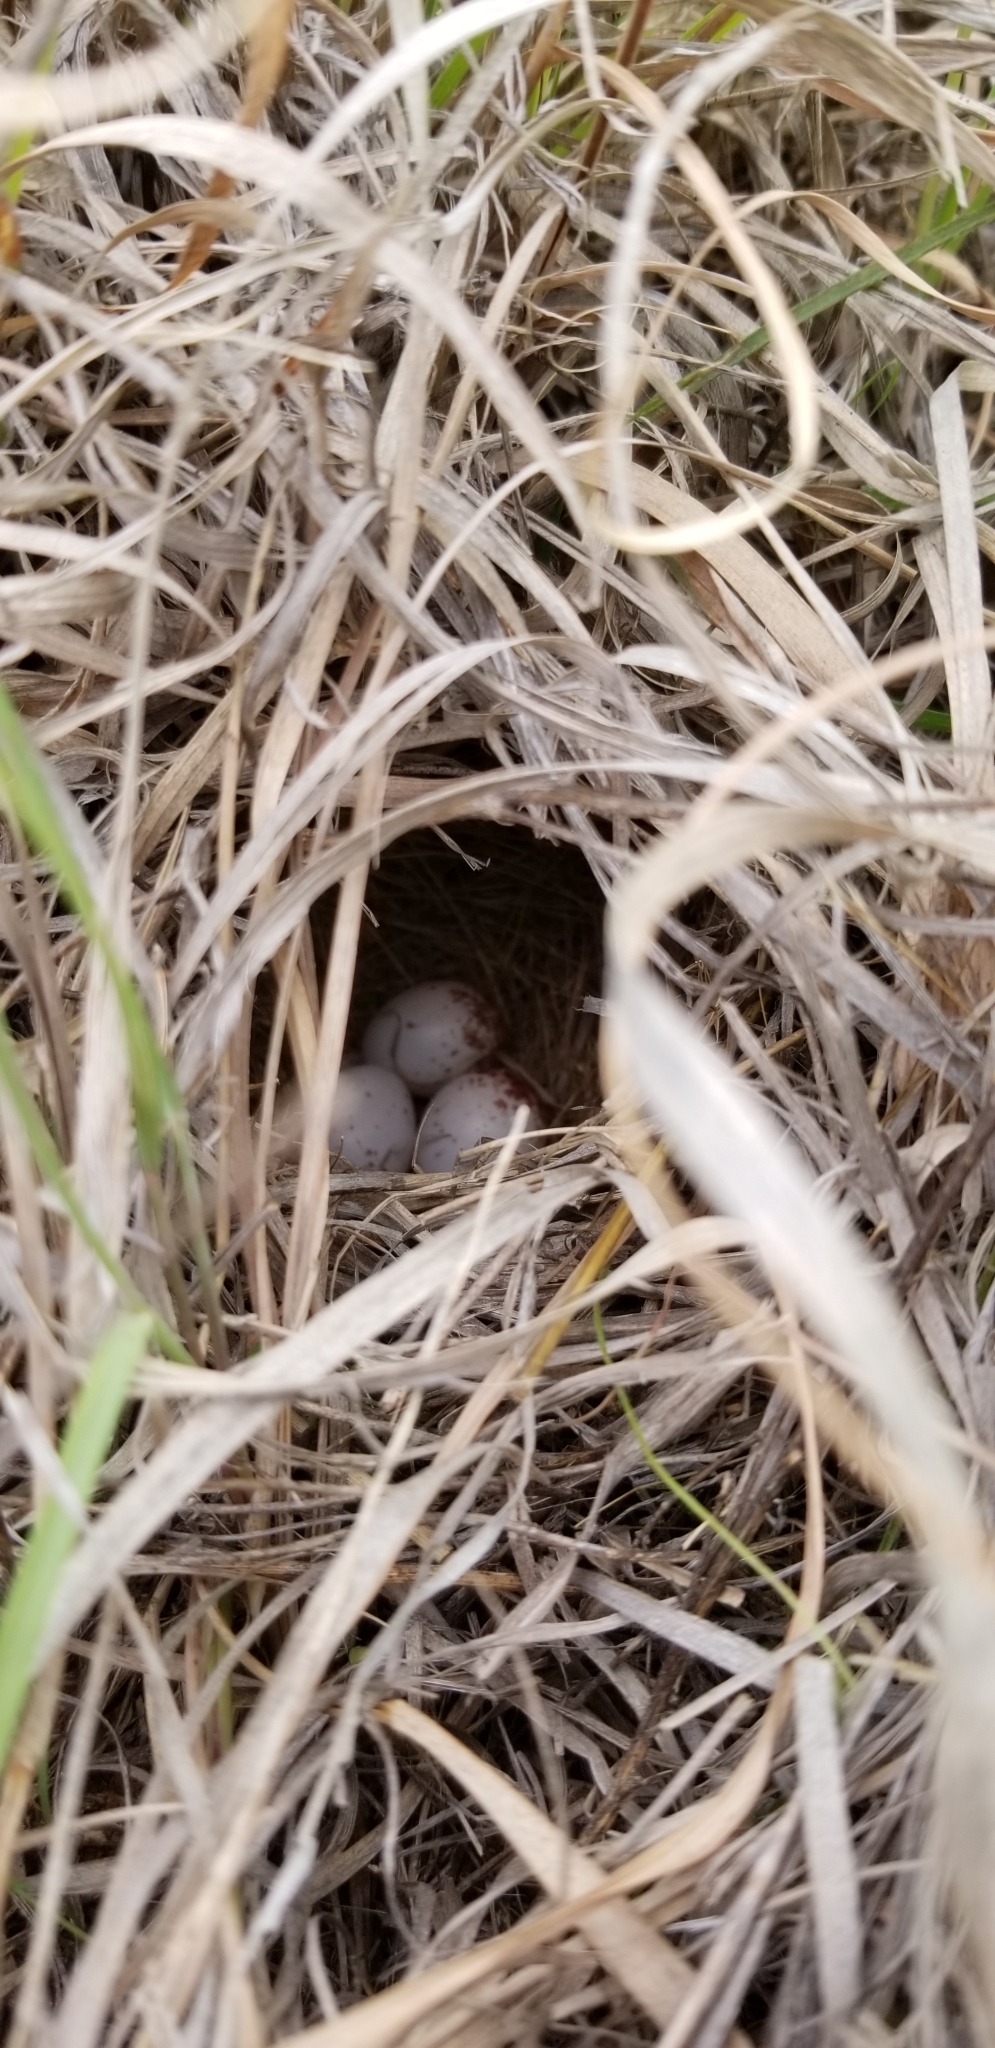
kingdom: Animalia
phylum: Chordata
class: Aves
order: Passeriformes
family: Passerellidae
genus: Peucaea
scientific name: Peucaea cassinii
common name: Cassin's sparrow
